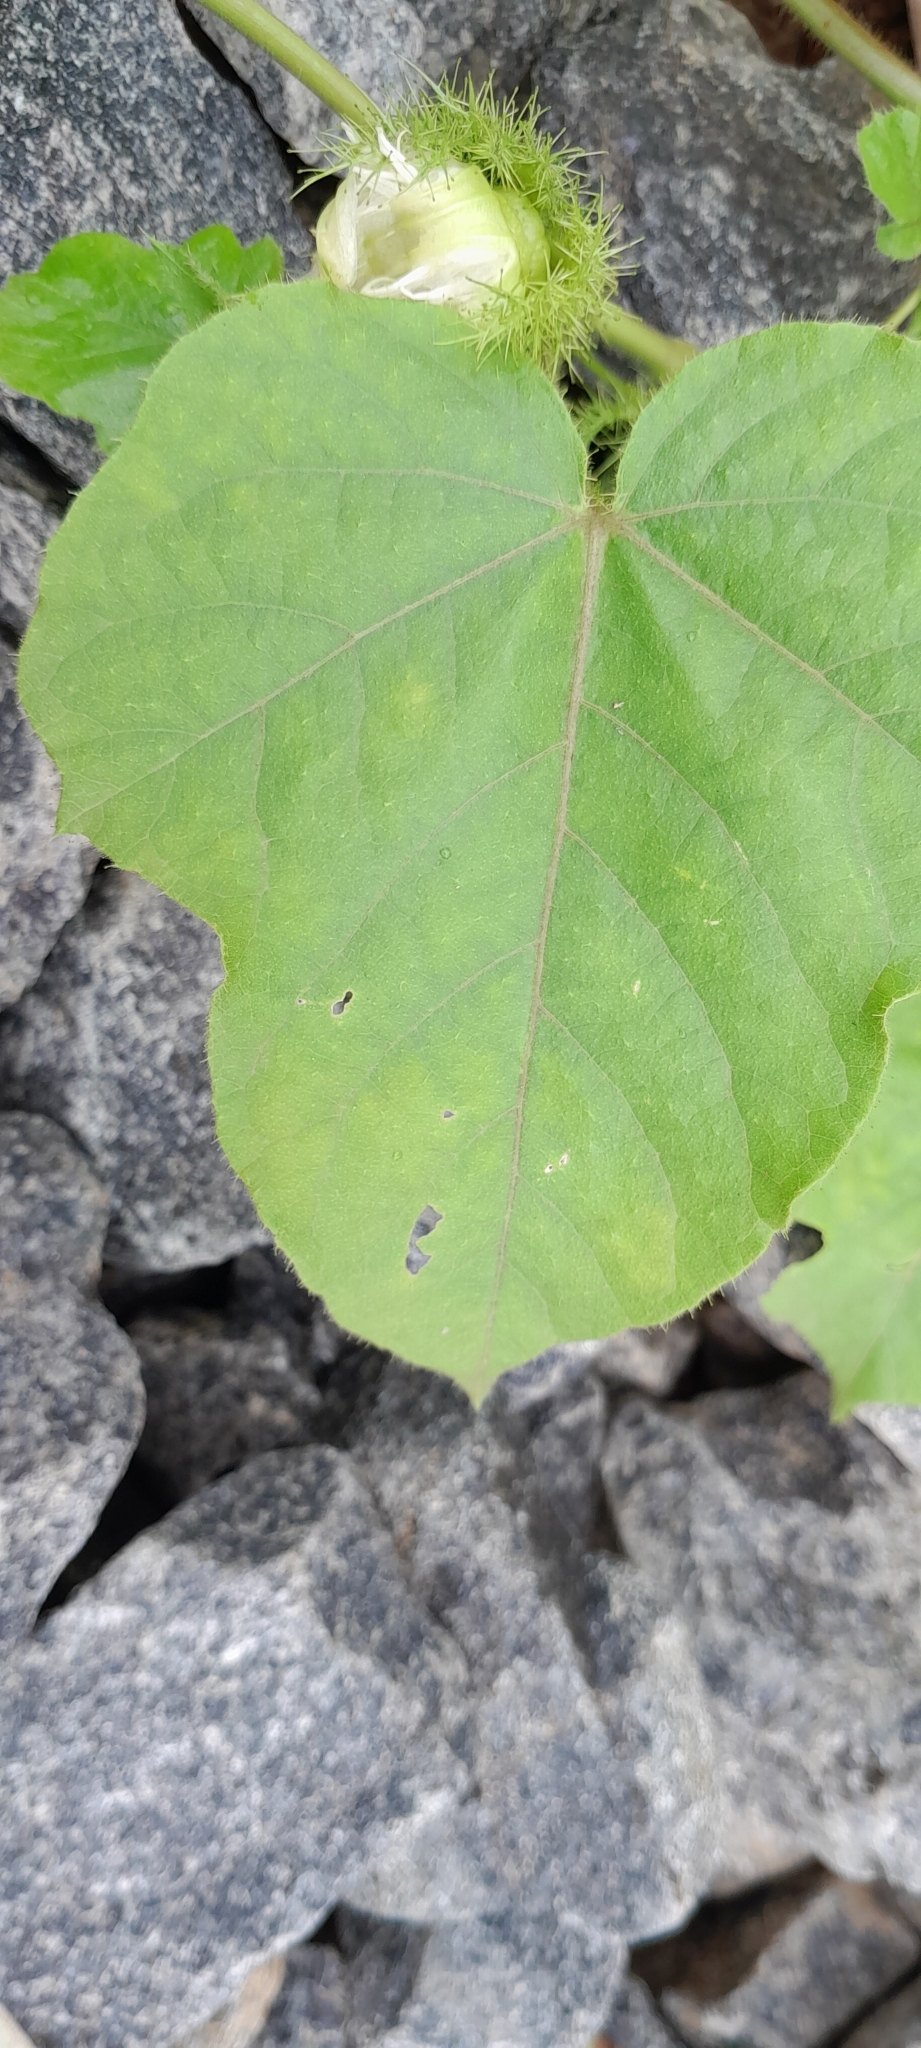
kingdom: Plantae
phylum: Tracheophyta
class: Magnoliopsida
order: Malpighiales
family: Passifloraceae
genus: Passiflora
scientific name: Passiflora vesicaria
